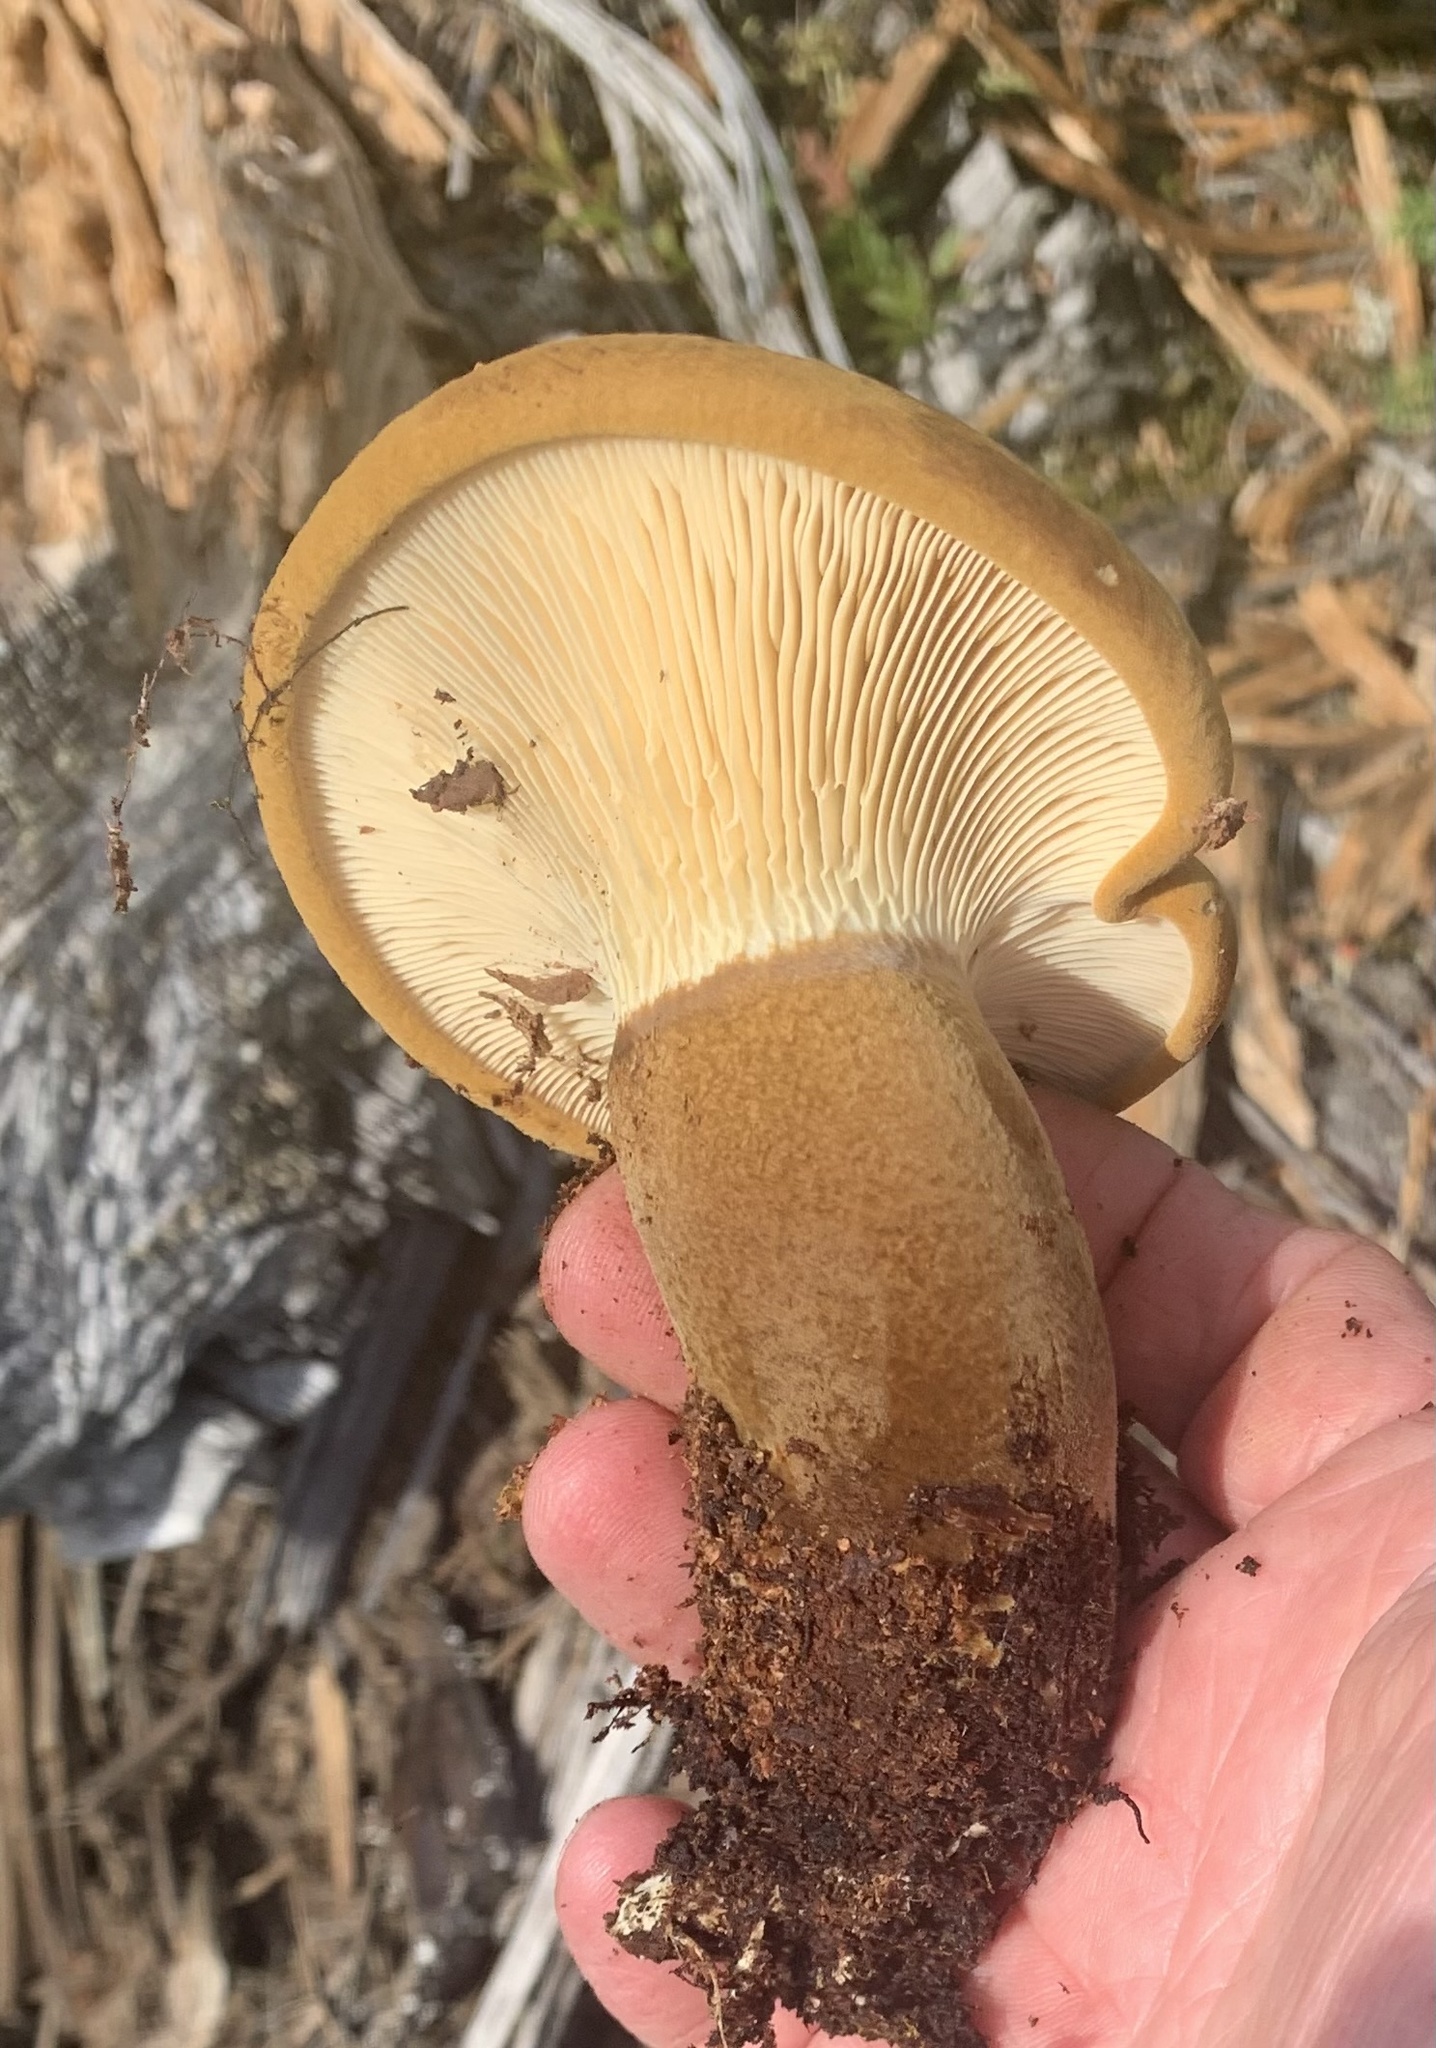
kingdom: Fungi
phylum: Basidiomycota
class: Agaricomycetes
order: Boletales
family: Tapinellaceae
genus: Tapinella
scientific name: Tapinella atrotomentosa
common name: Velvet rollrim
